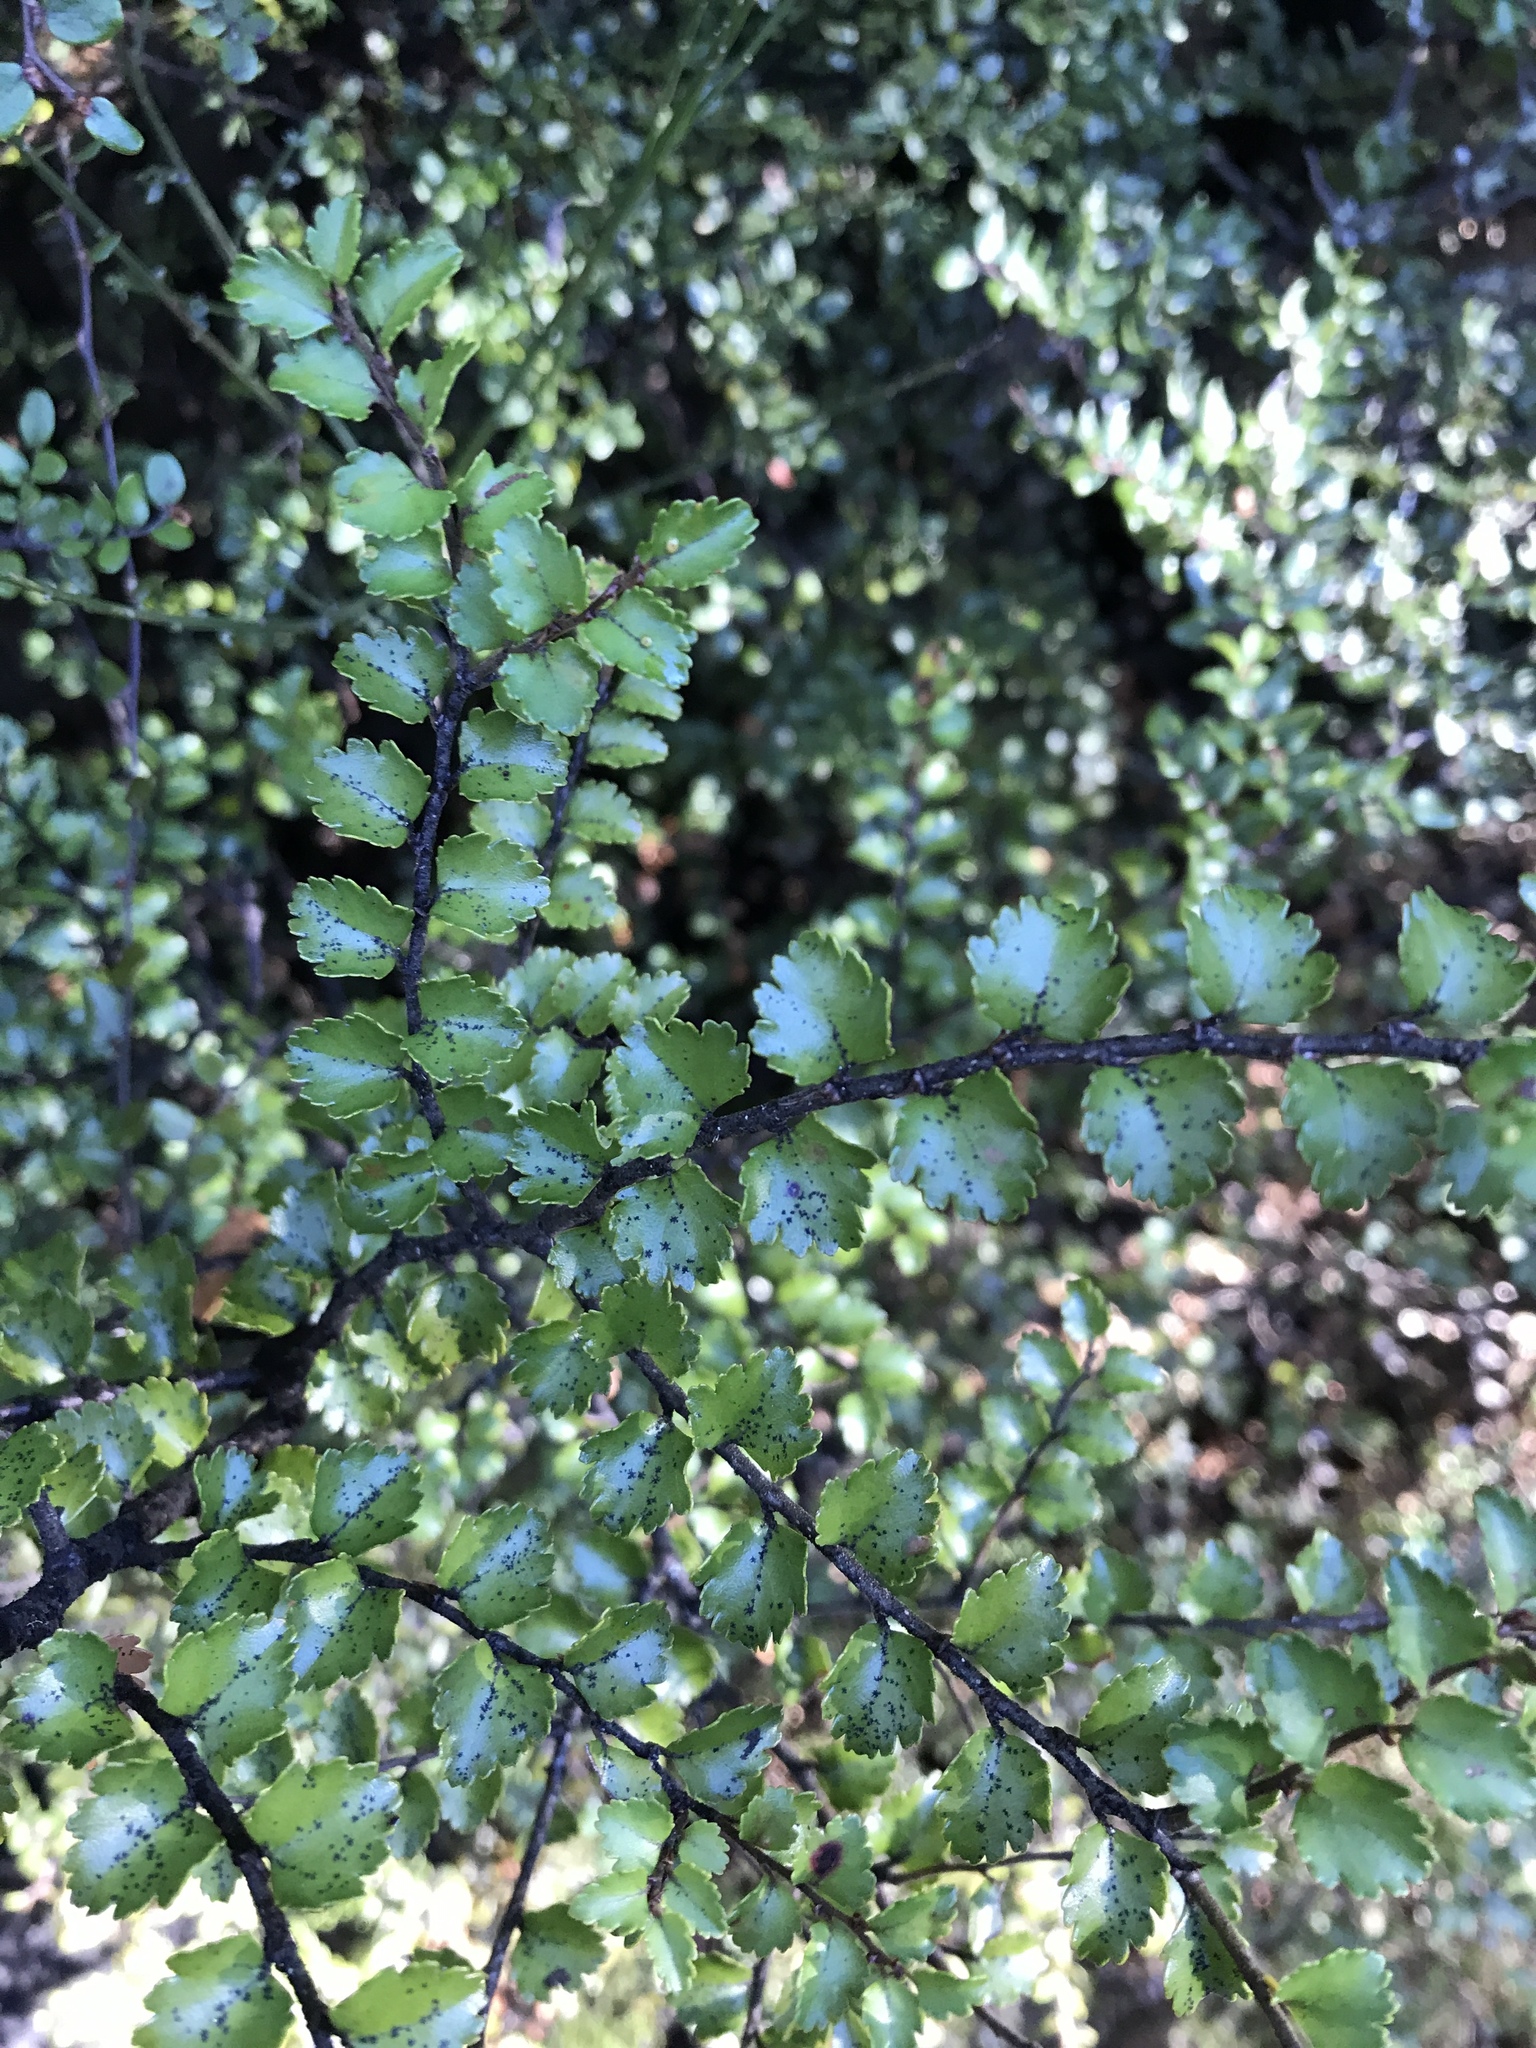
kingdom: Plantae
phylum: Tracheophyta
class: Magnoliopsida
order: Fagales
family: Nothofagaceae
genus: Nothofagus
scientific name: Nothofagus menziesii
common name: Silver beech
